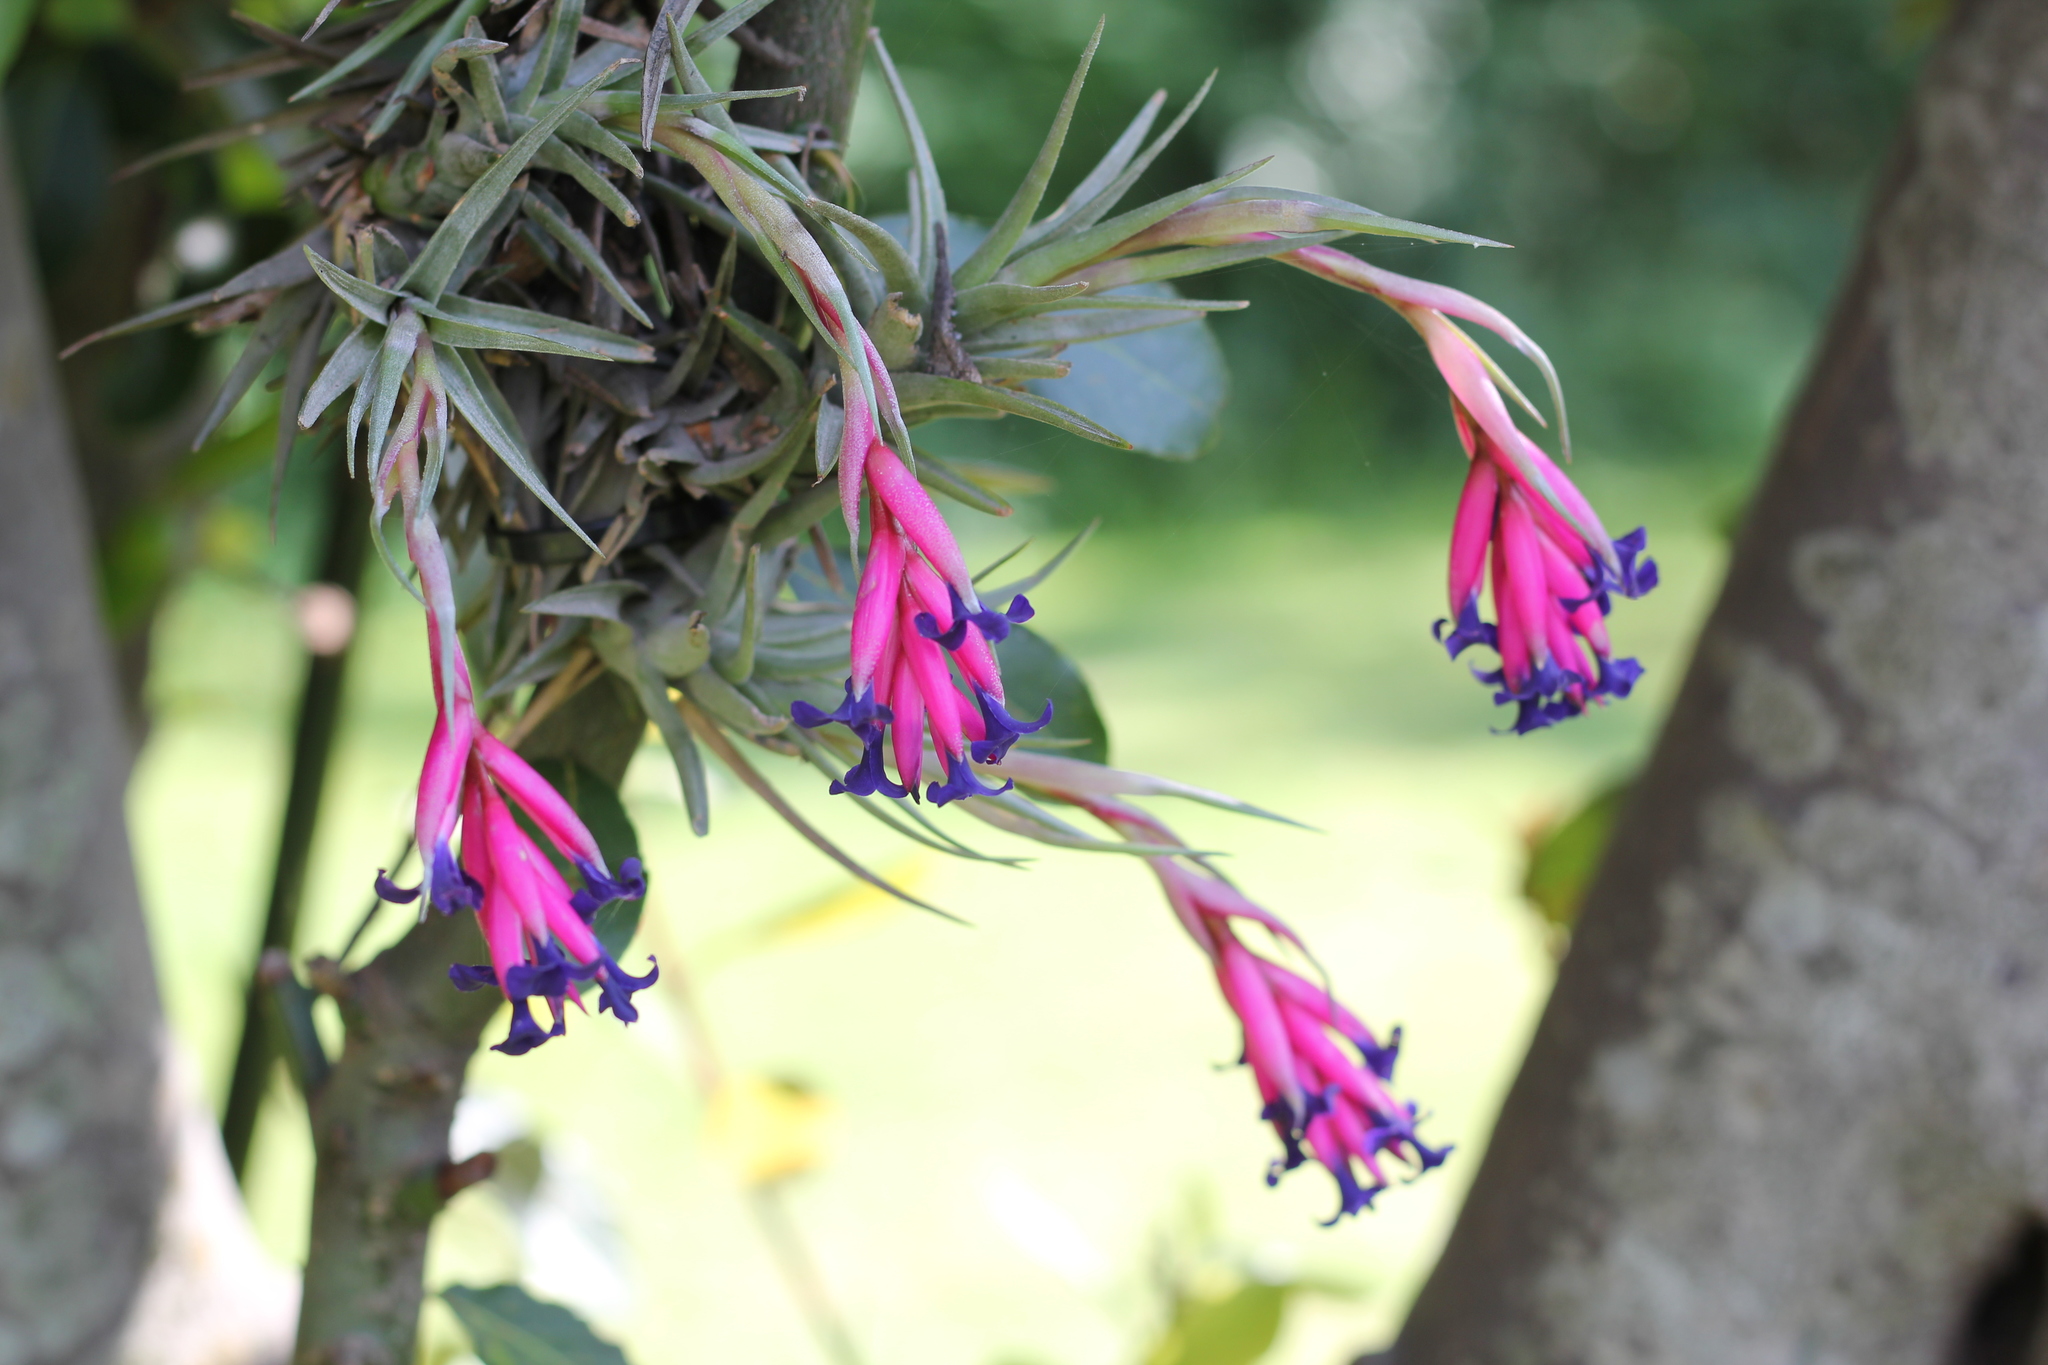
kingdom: Plantae
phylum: Tracheophyta
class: Liliopsida
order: Poales
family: Bromeliaceae
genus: Tillandsia
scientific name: Tillandsia aeranthos
